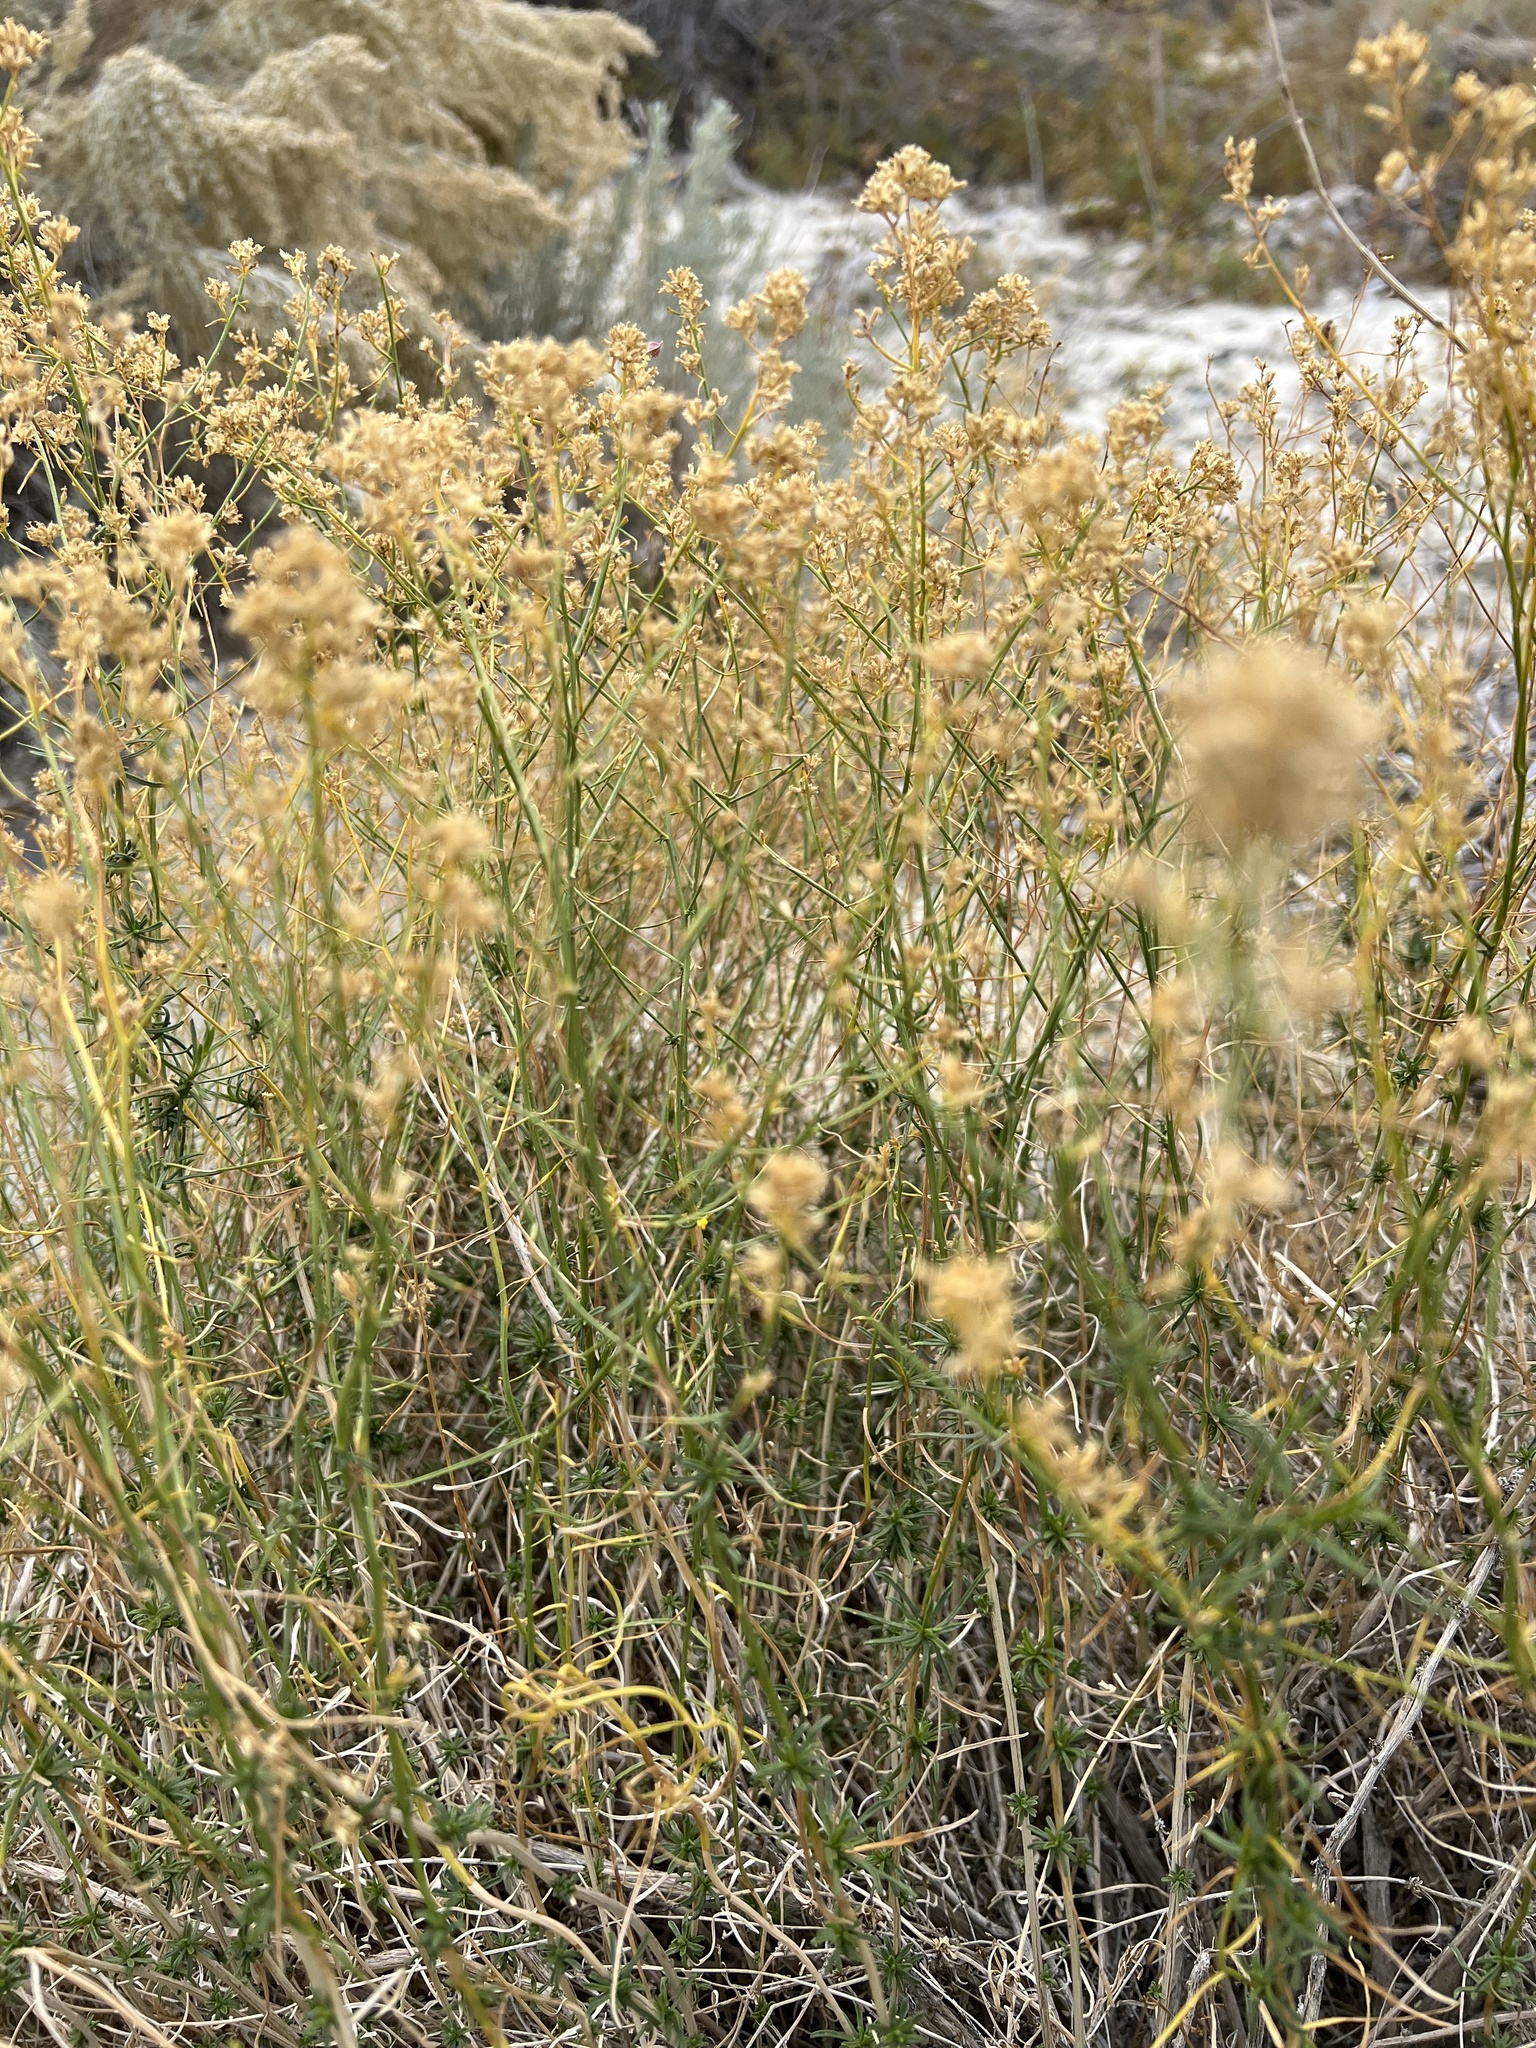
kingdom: Plantae
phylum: Tracheophyta
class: Magnoliopsida
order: Asterales
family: Asteraceae
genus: Gutierrezia
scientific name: Gutierrezia microcephala
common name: Thread snakeweed
